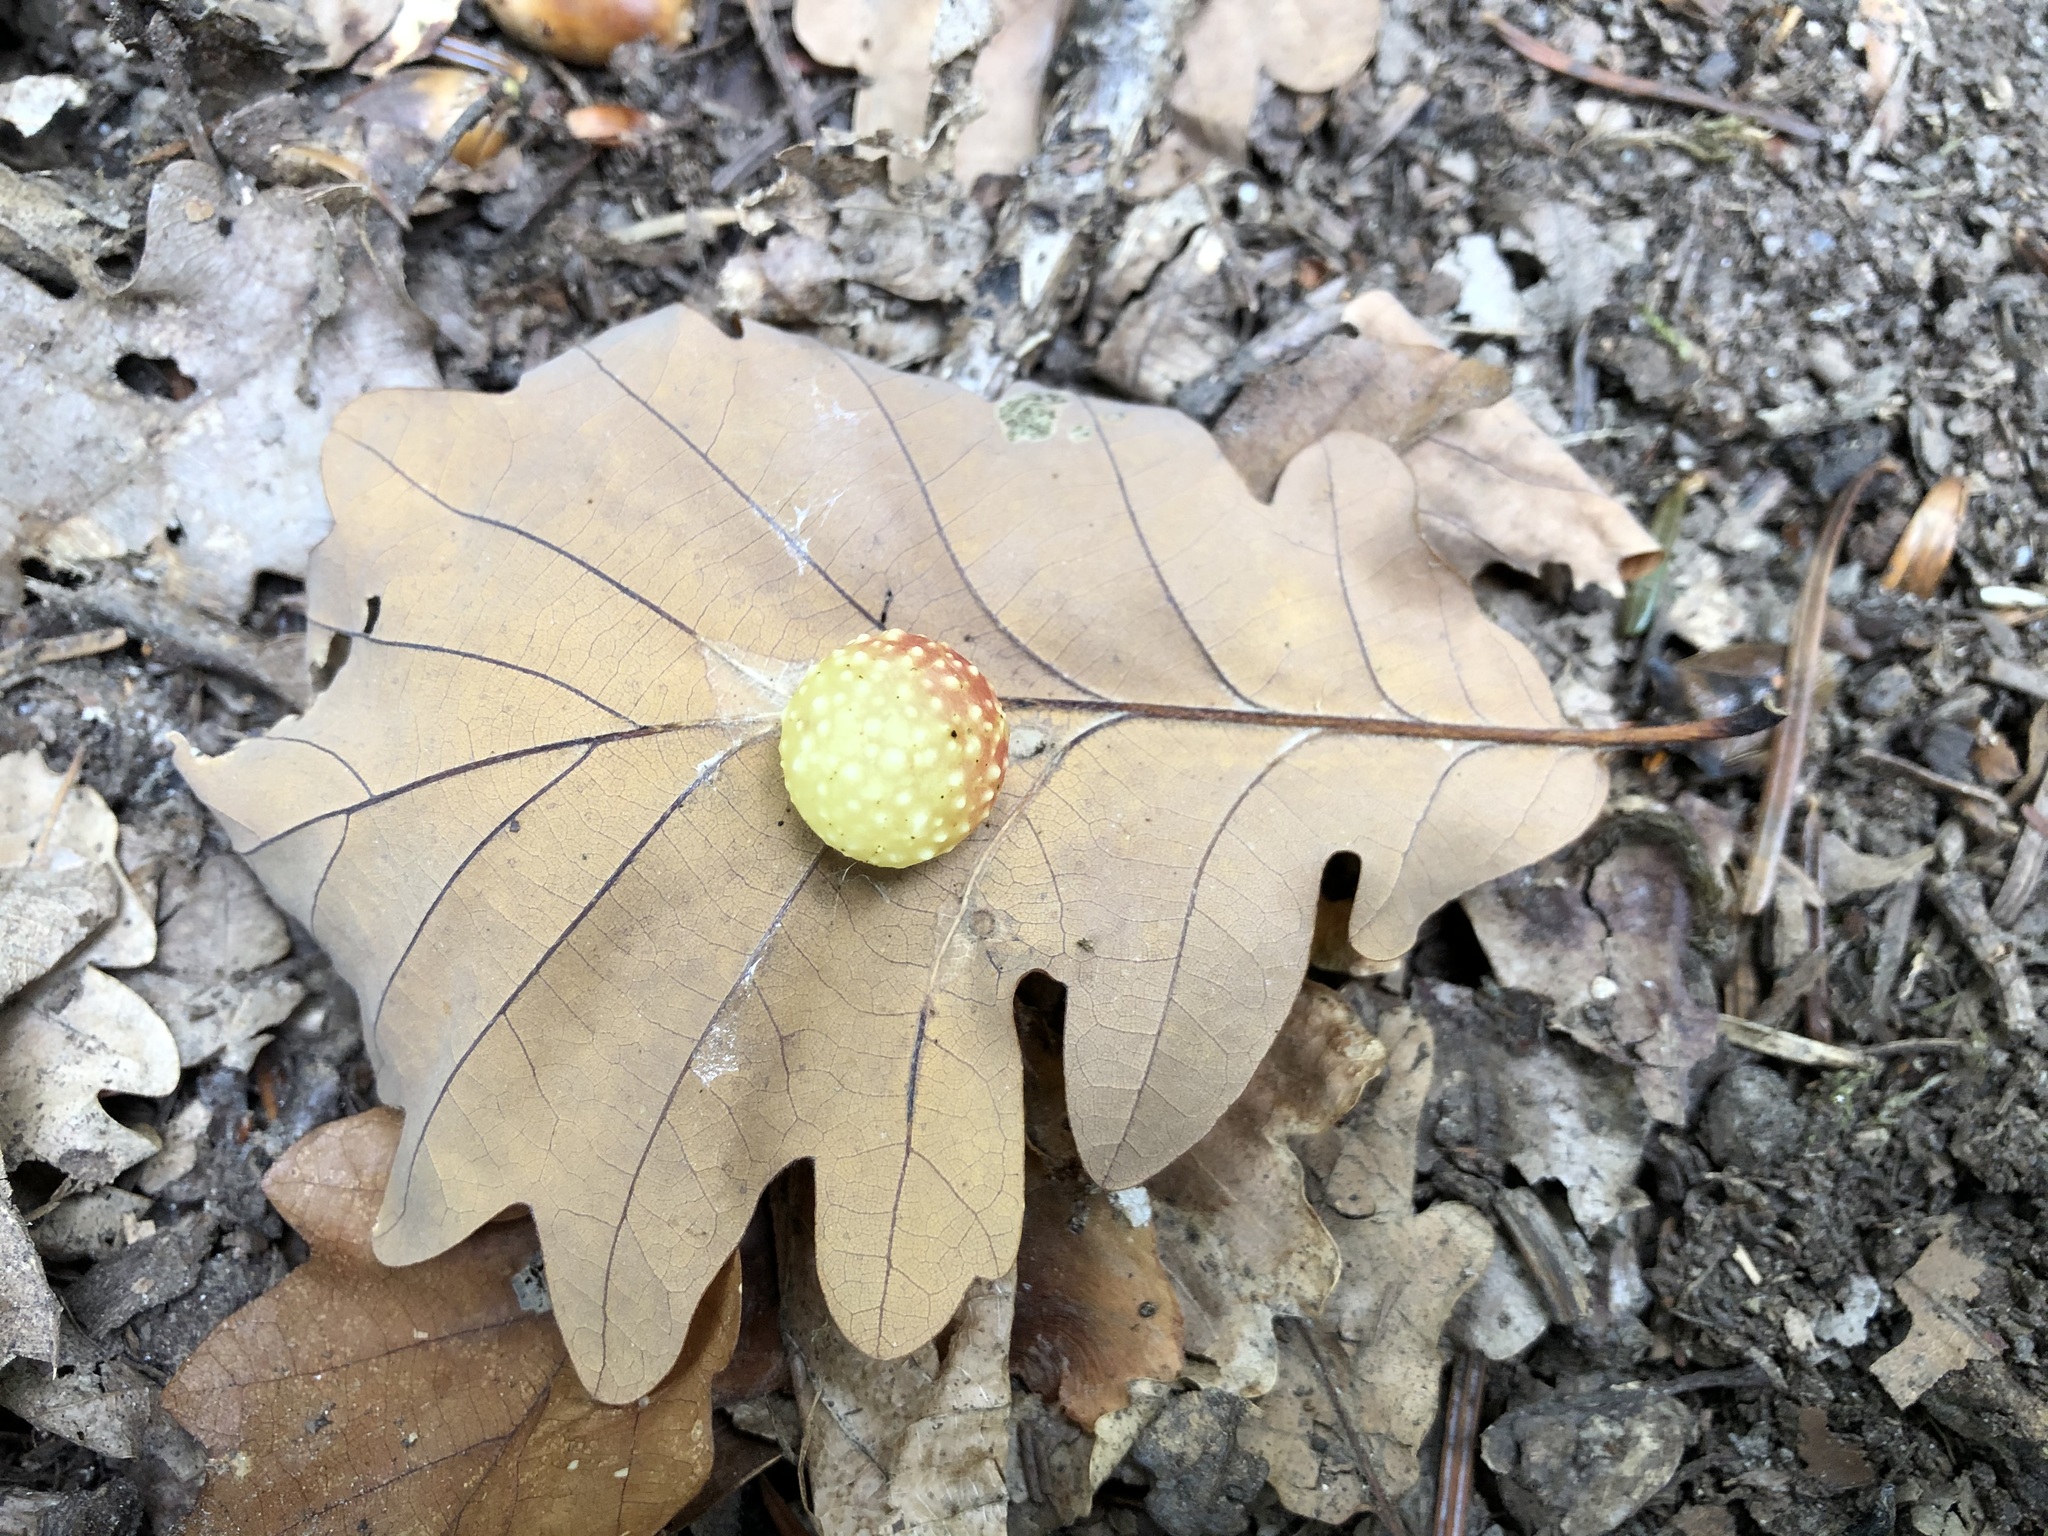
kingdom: Animalia
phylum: Arthropoda
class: Insecta
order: Hymenoptera
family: Cynipidae
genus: Cynips
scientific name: Cynips quercusfolii
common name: Cherry gall
